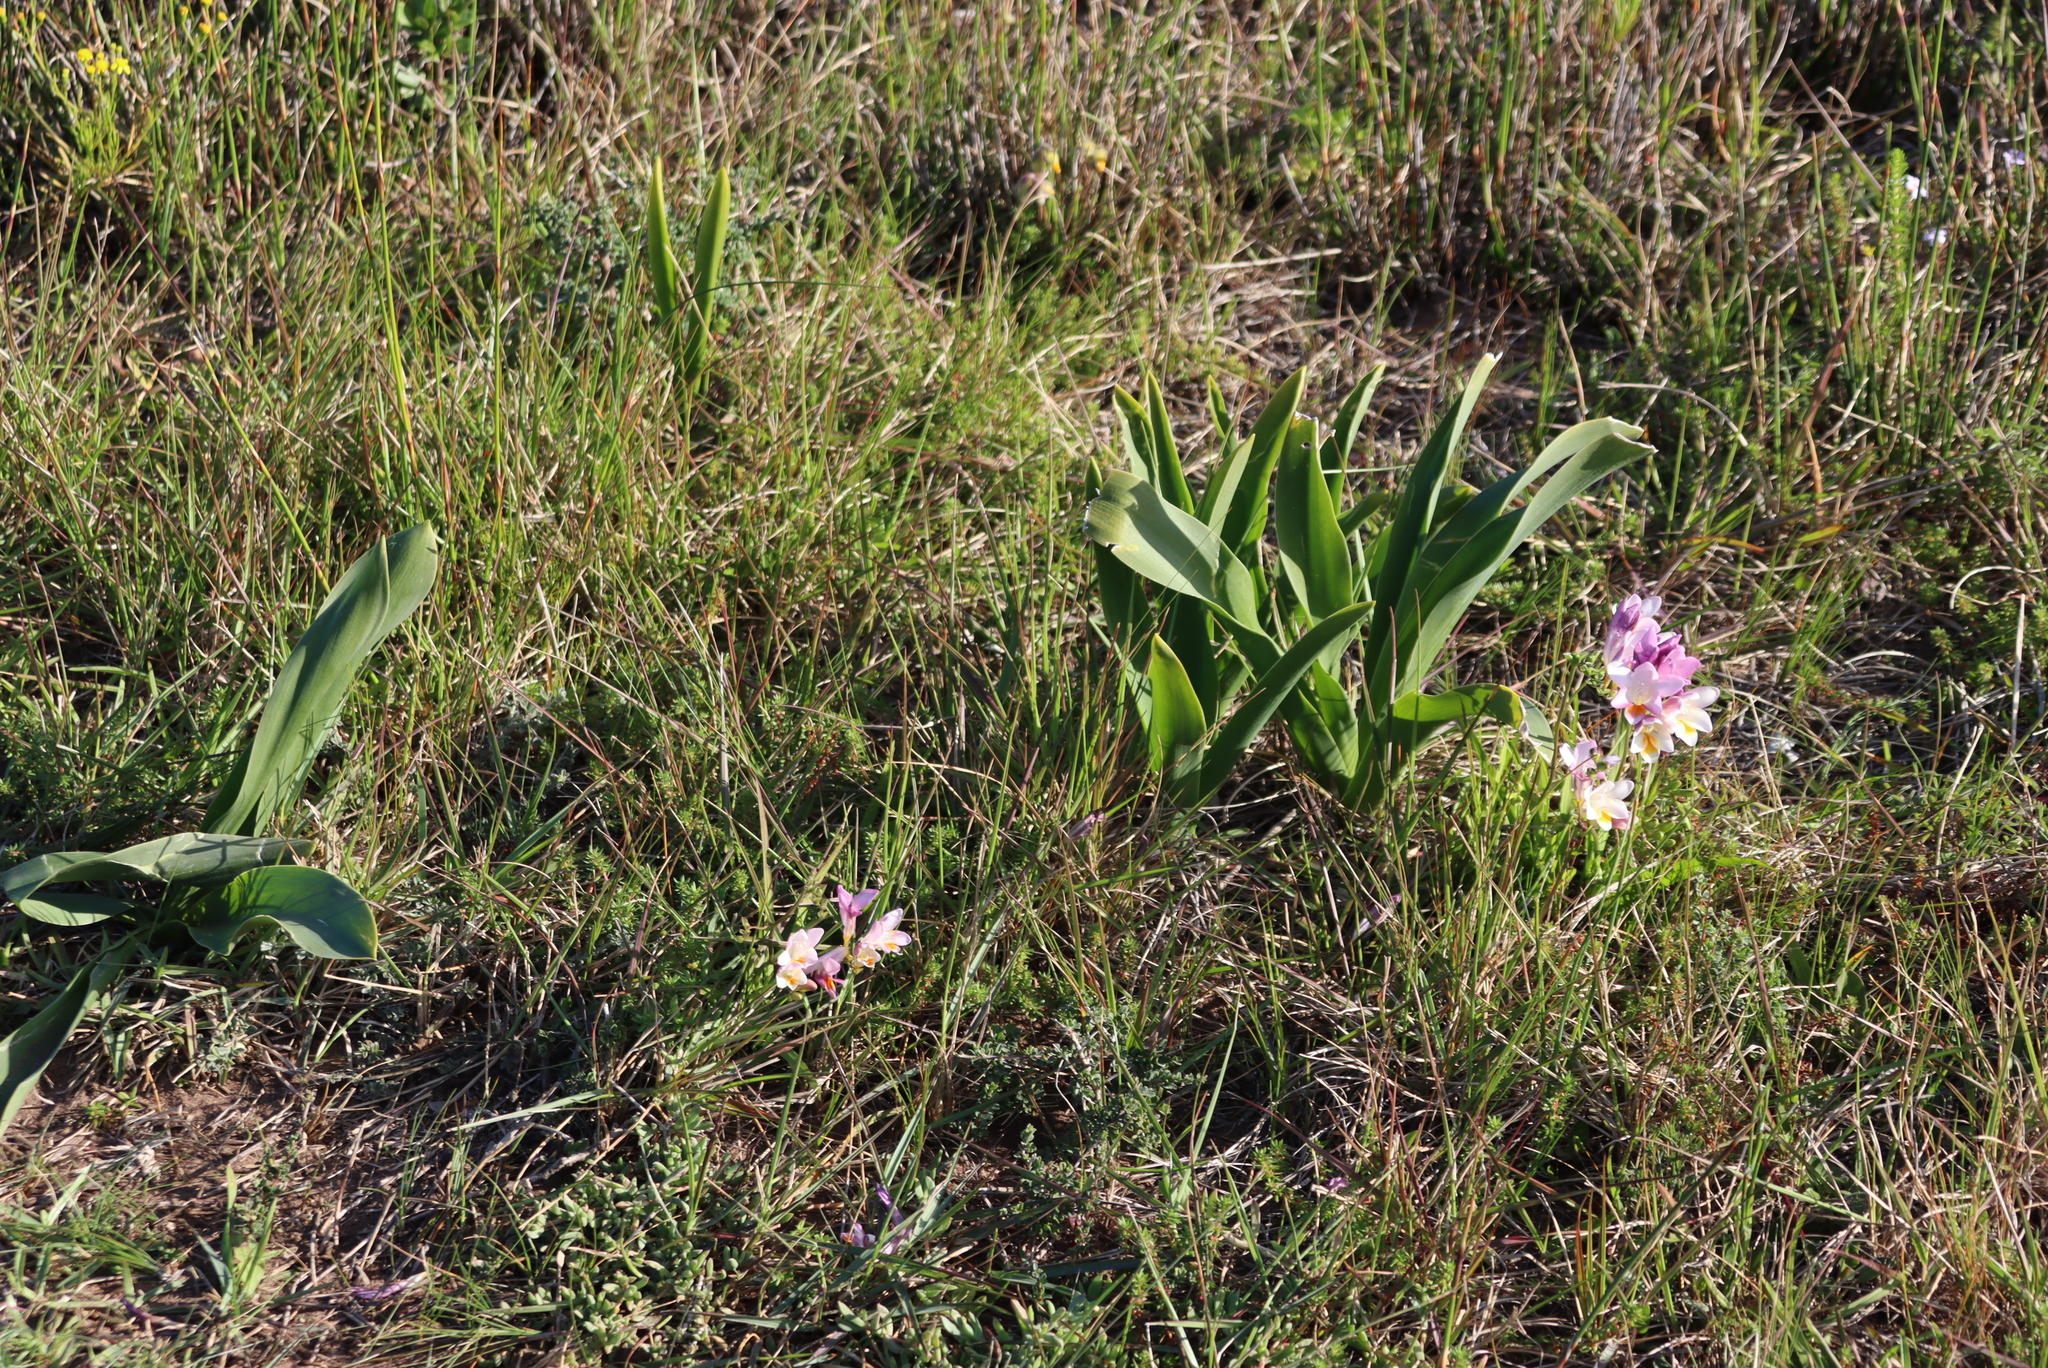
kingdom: Plantae
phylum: Tracheophyta
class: Liliopsida
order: Asparagales
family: Asparagaceae
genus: Drimia
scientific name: Drimia capensis
